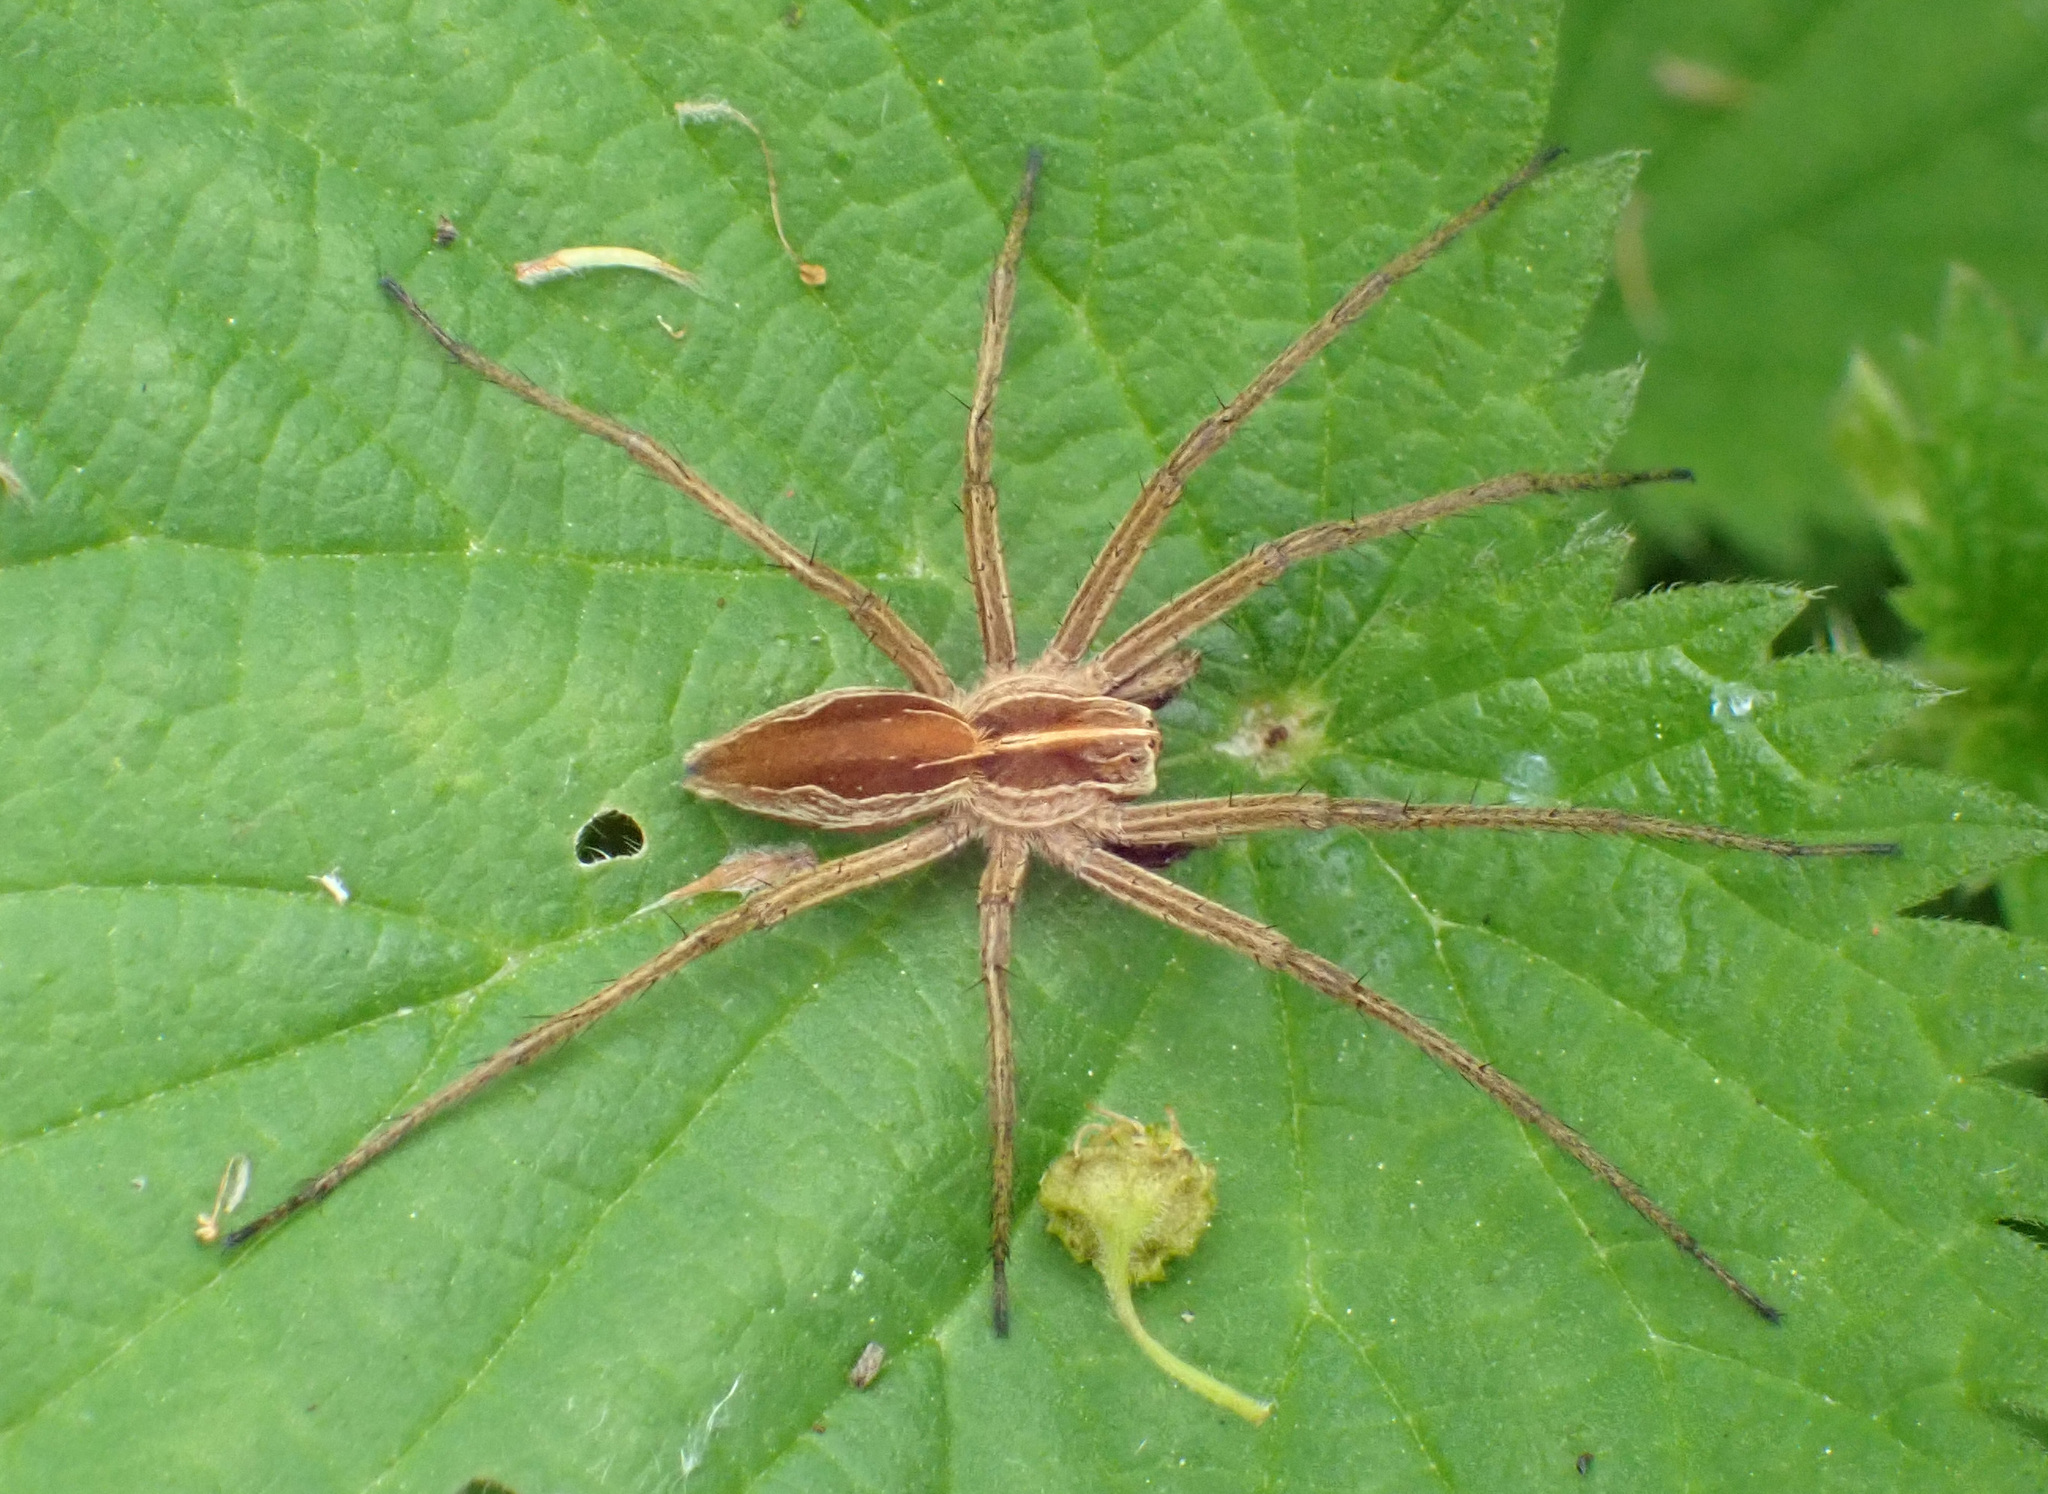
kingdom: Animalia
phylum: Arthropoda
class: Arachnida
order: Araneae
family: Pisauridae
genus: Pisaura
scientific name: Pisaura mirabilis
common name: Tent spider
